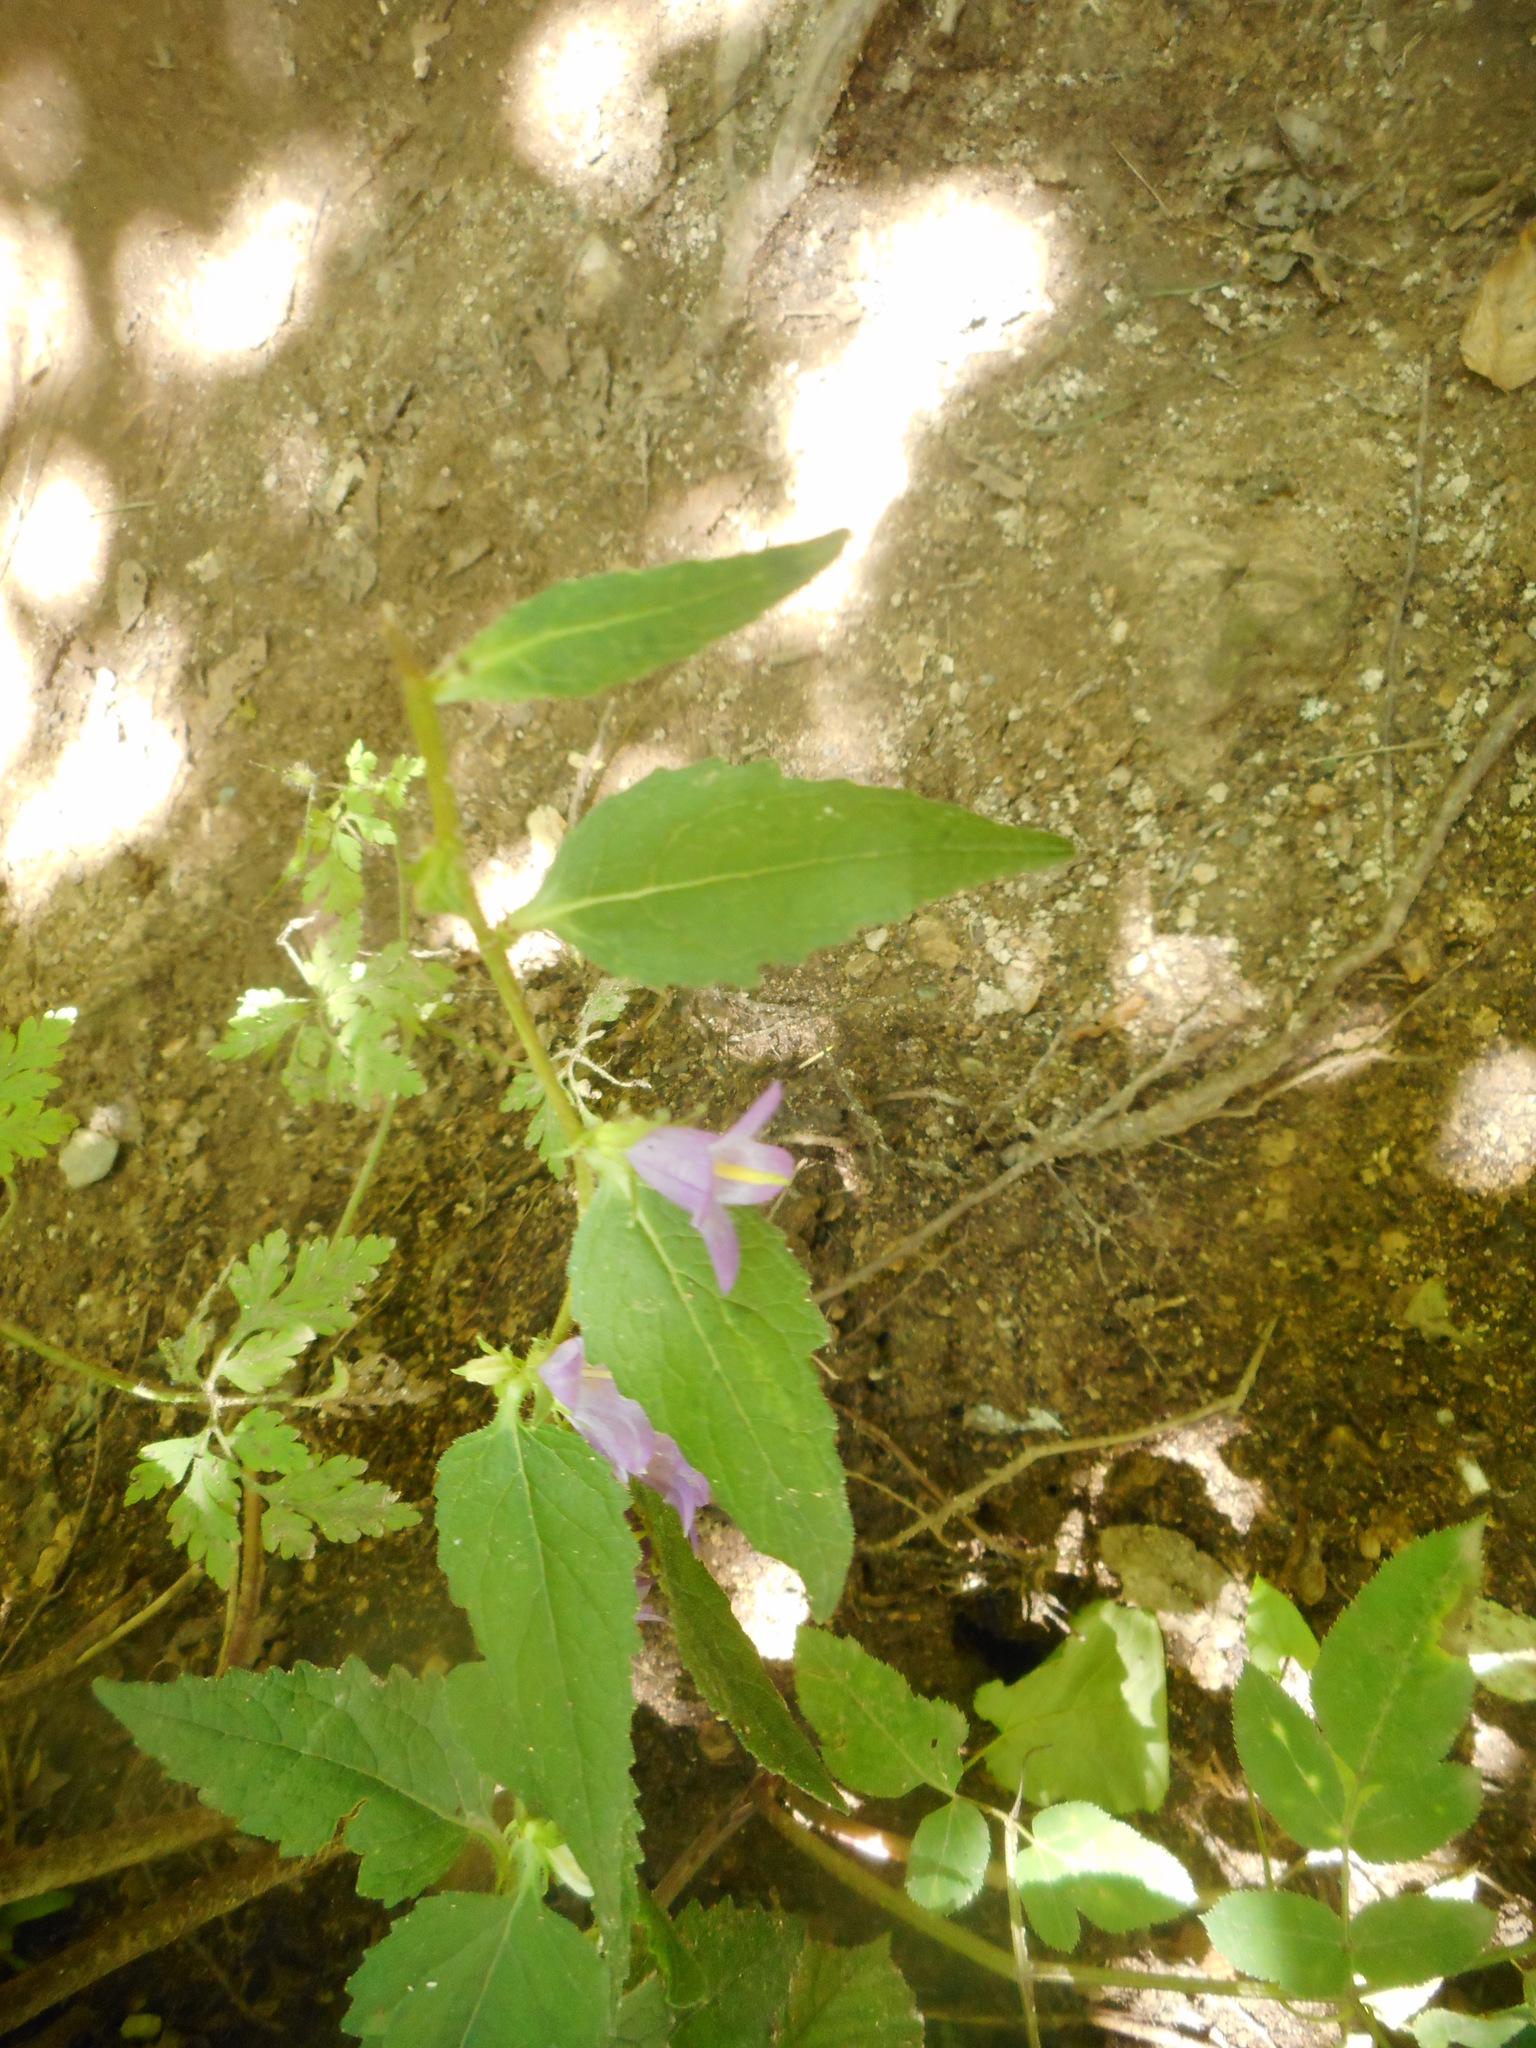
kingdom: Plantae
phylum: Tracheophyta
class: Magnoliopsida
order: Asterales
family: Campanulaceae
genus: Campanula
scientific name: Campanula trachelium
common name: Nettle-leaved bellflower
